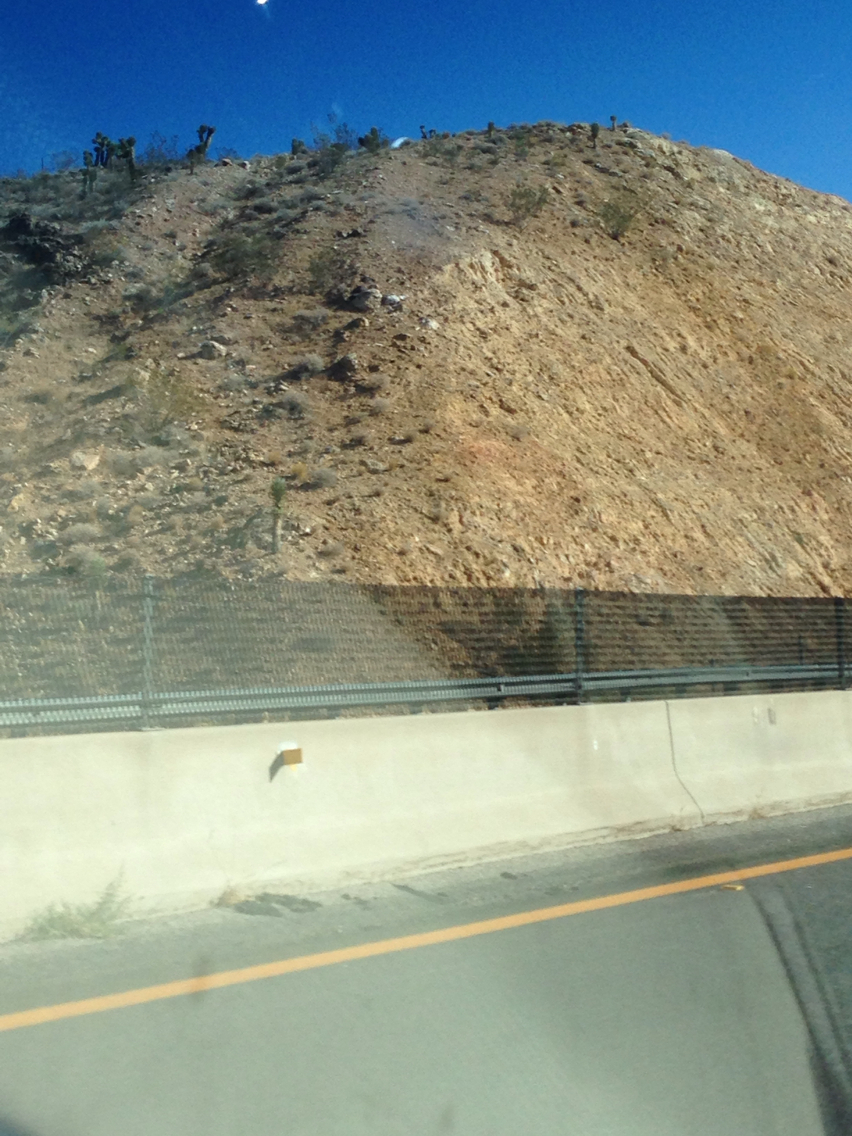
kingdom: Plantae
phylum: Tracheophyta
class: Liliopsida
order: Asparagales
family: Asparagaceae
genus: Yucca
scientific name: Yucca brevifolia
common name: Joshua tree
